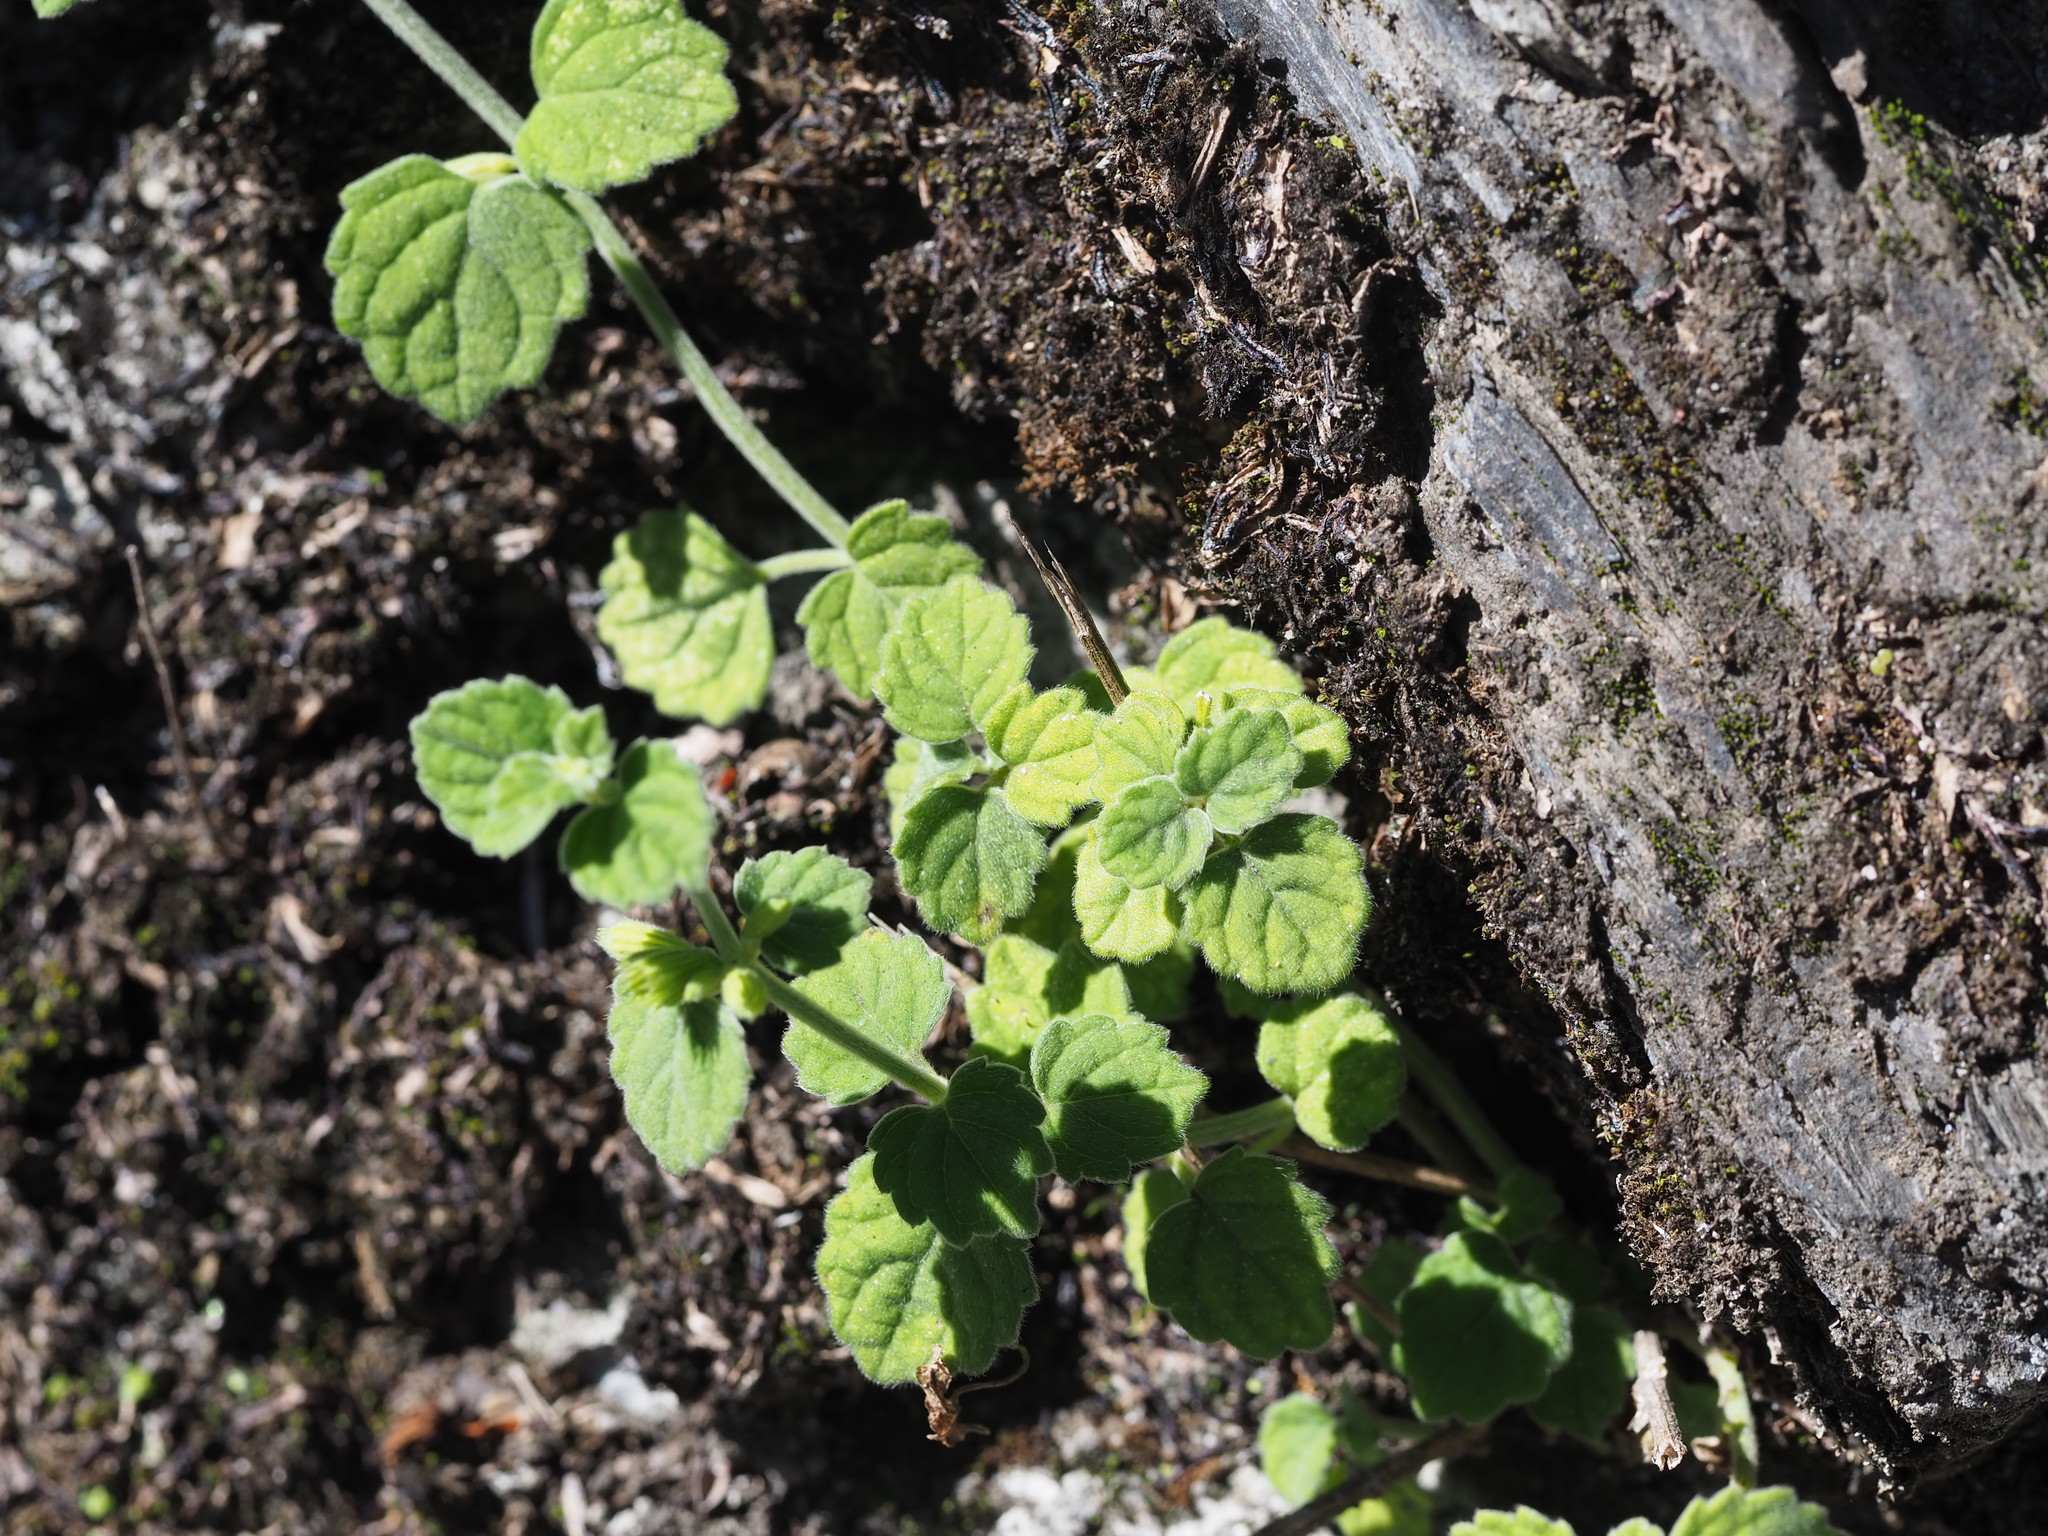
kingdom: Plantae
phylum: Tracheophyta
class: Magnoliopsida
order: Lamiales
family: Lamiaceae
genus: Leucas
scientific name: Leucas chinensis
